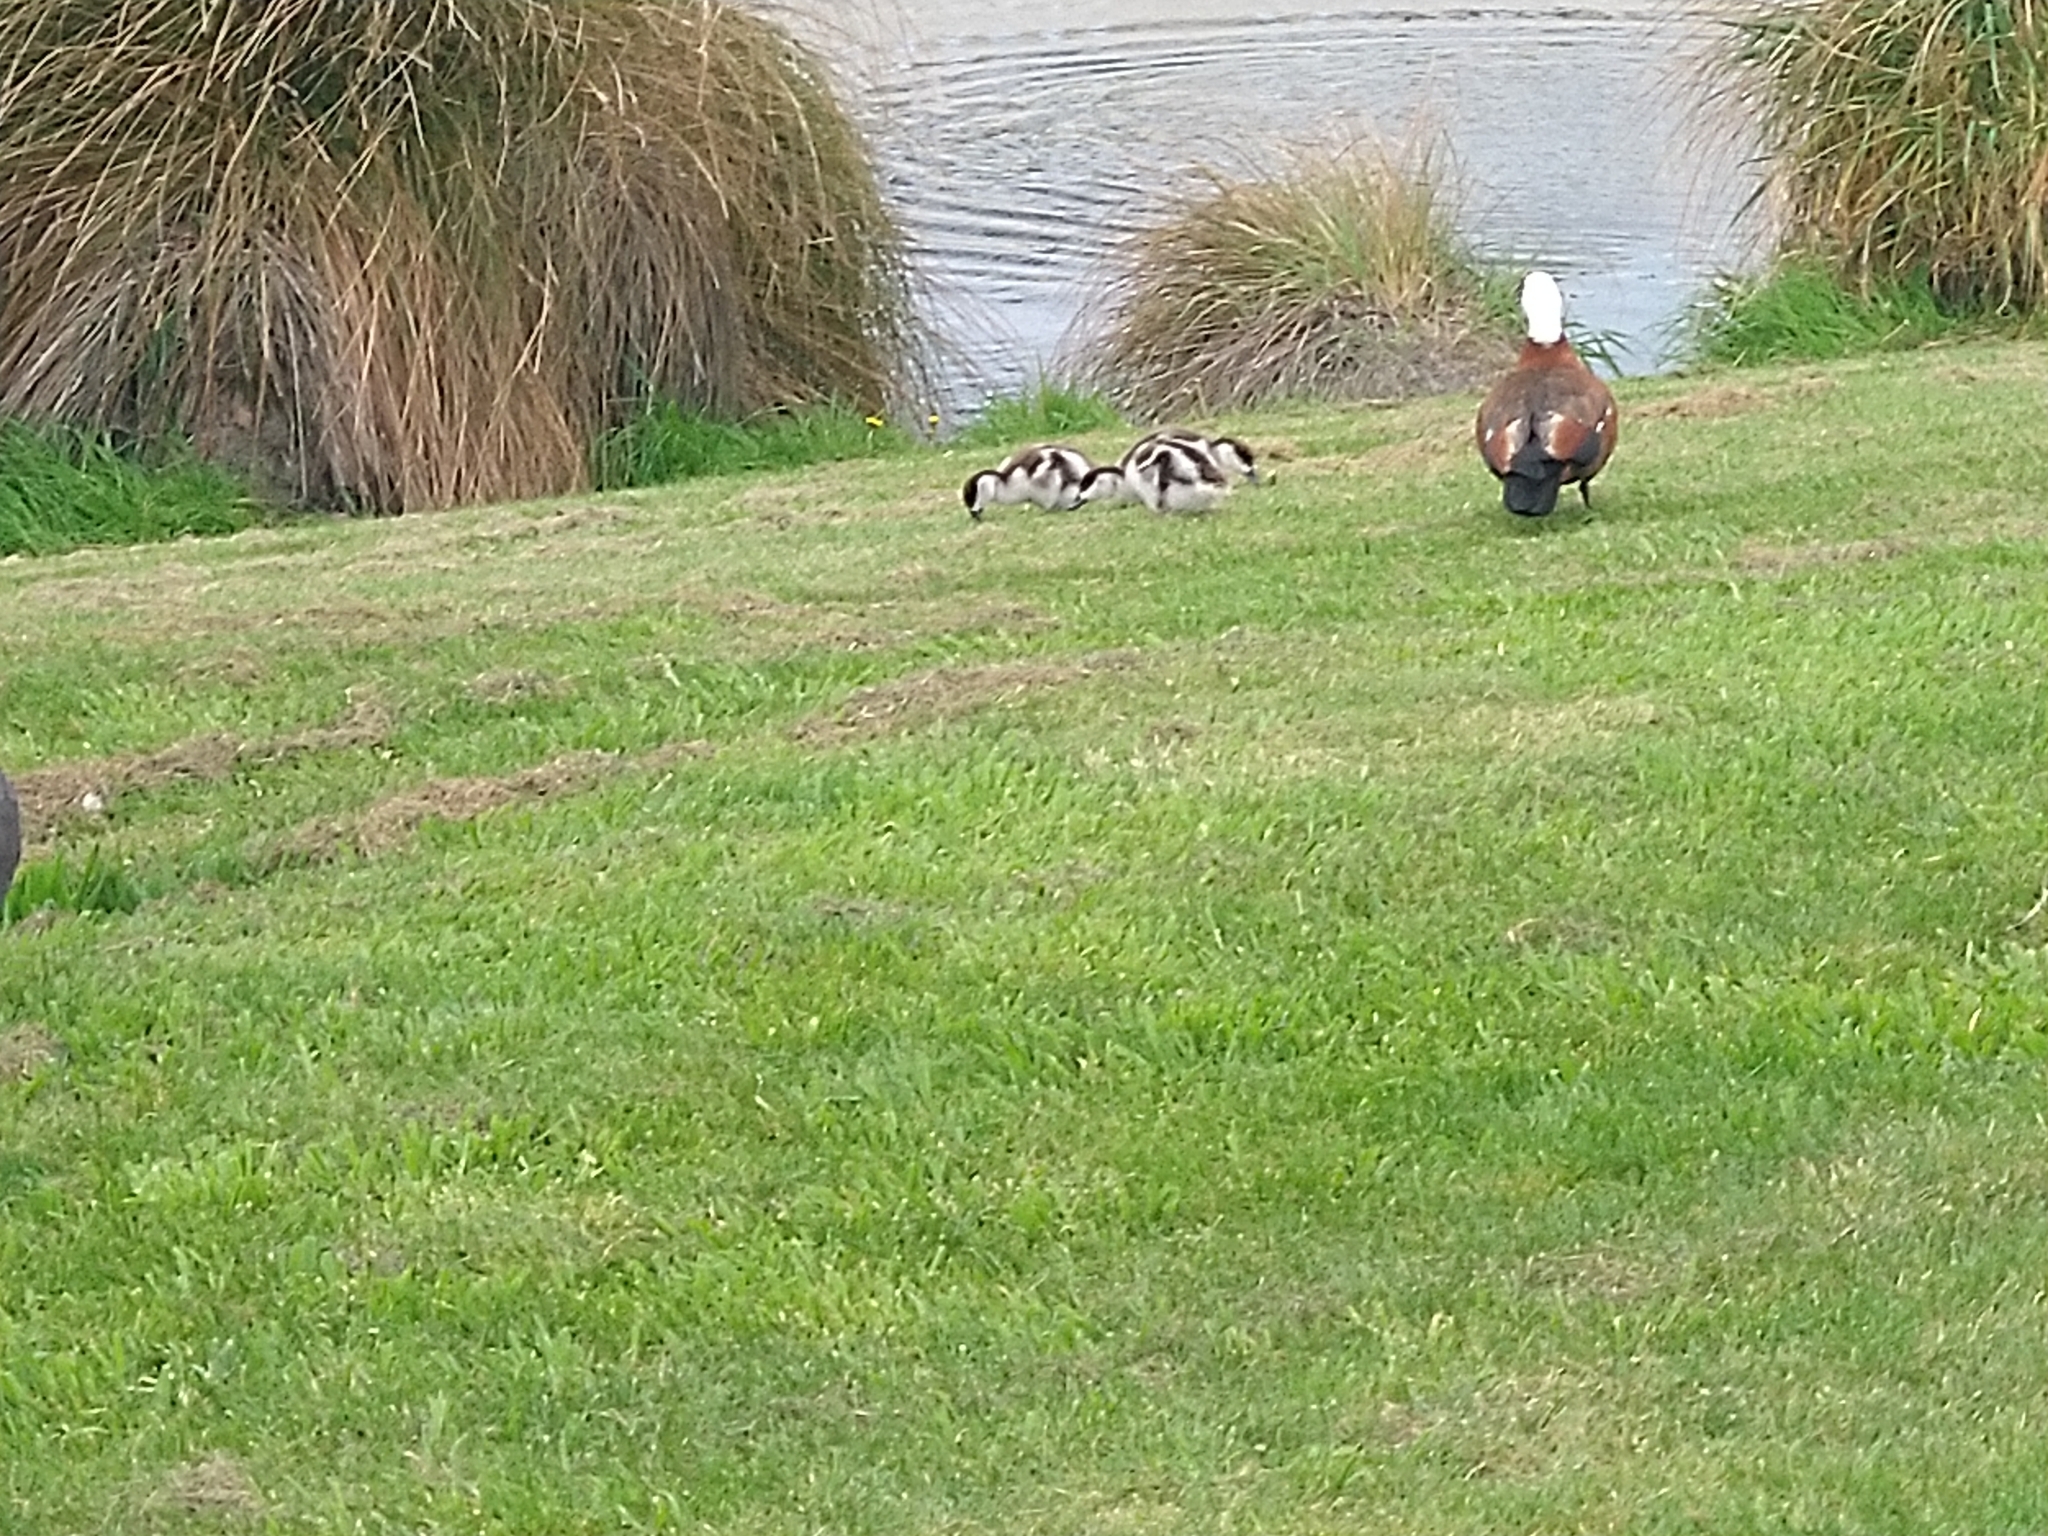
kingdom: Animalia
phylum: Chordata
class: Aves
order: Anseriformes
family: Anatidae
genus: Tadorna
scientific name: Tadorna variegata
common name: Paradise shelduck
